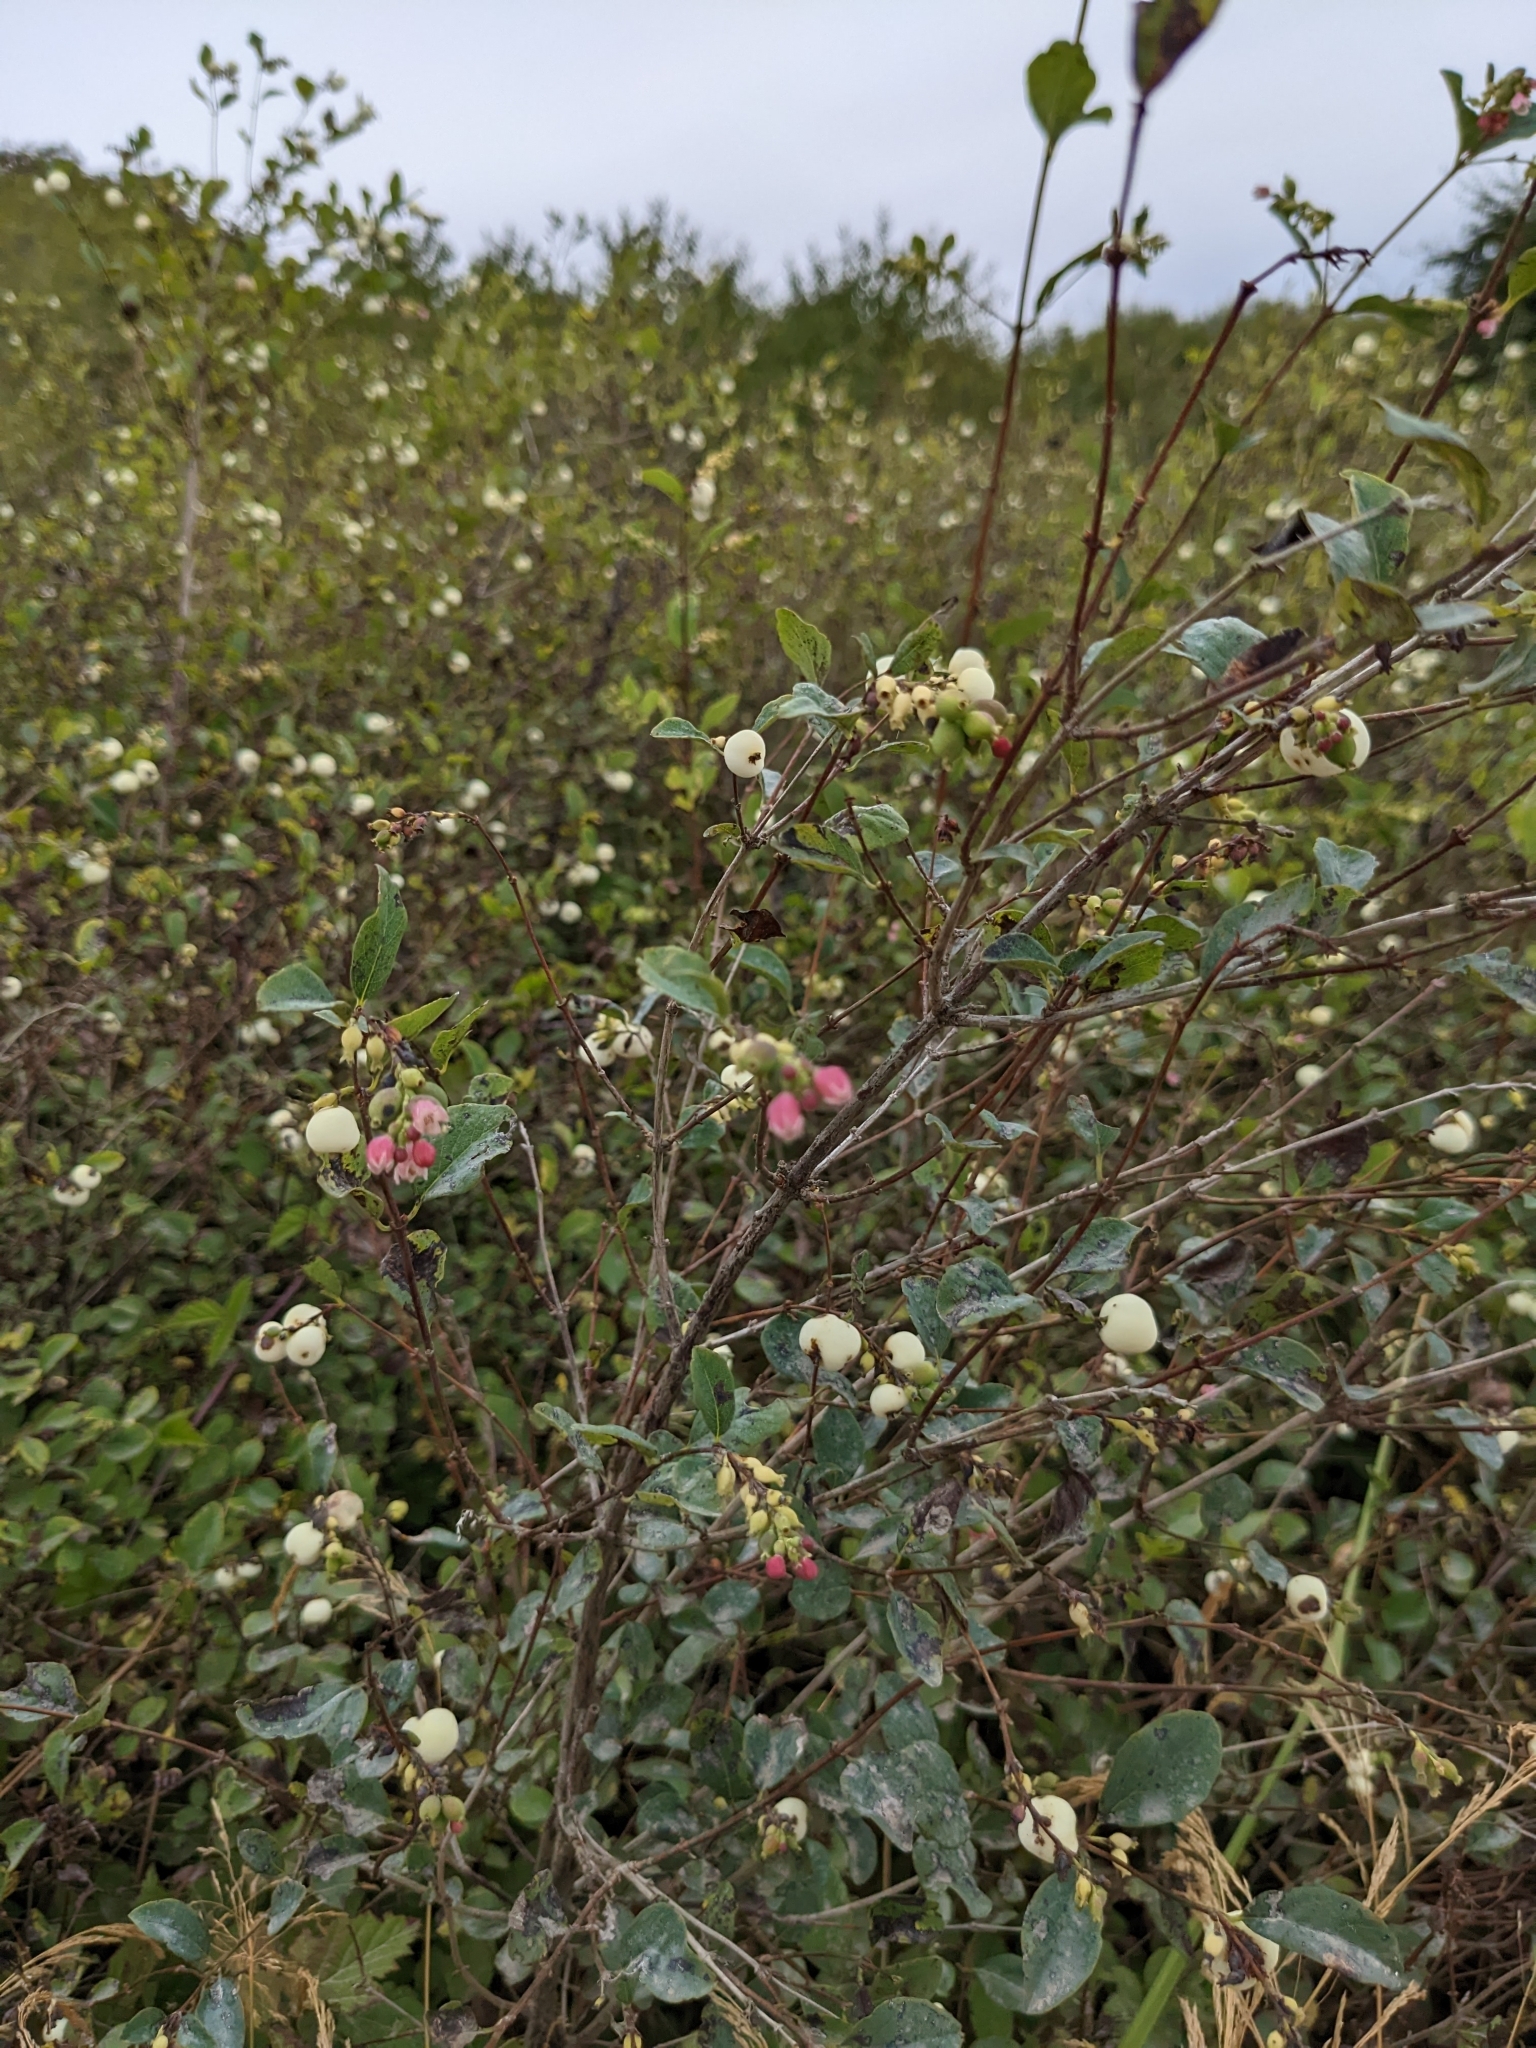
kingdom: Plantae
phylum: Tracheophyta
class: Magnoliopsida
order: Dipsacales
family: Caprifoliaceae
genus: Symphoricarpos
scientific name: Symphoricarpos albus
